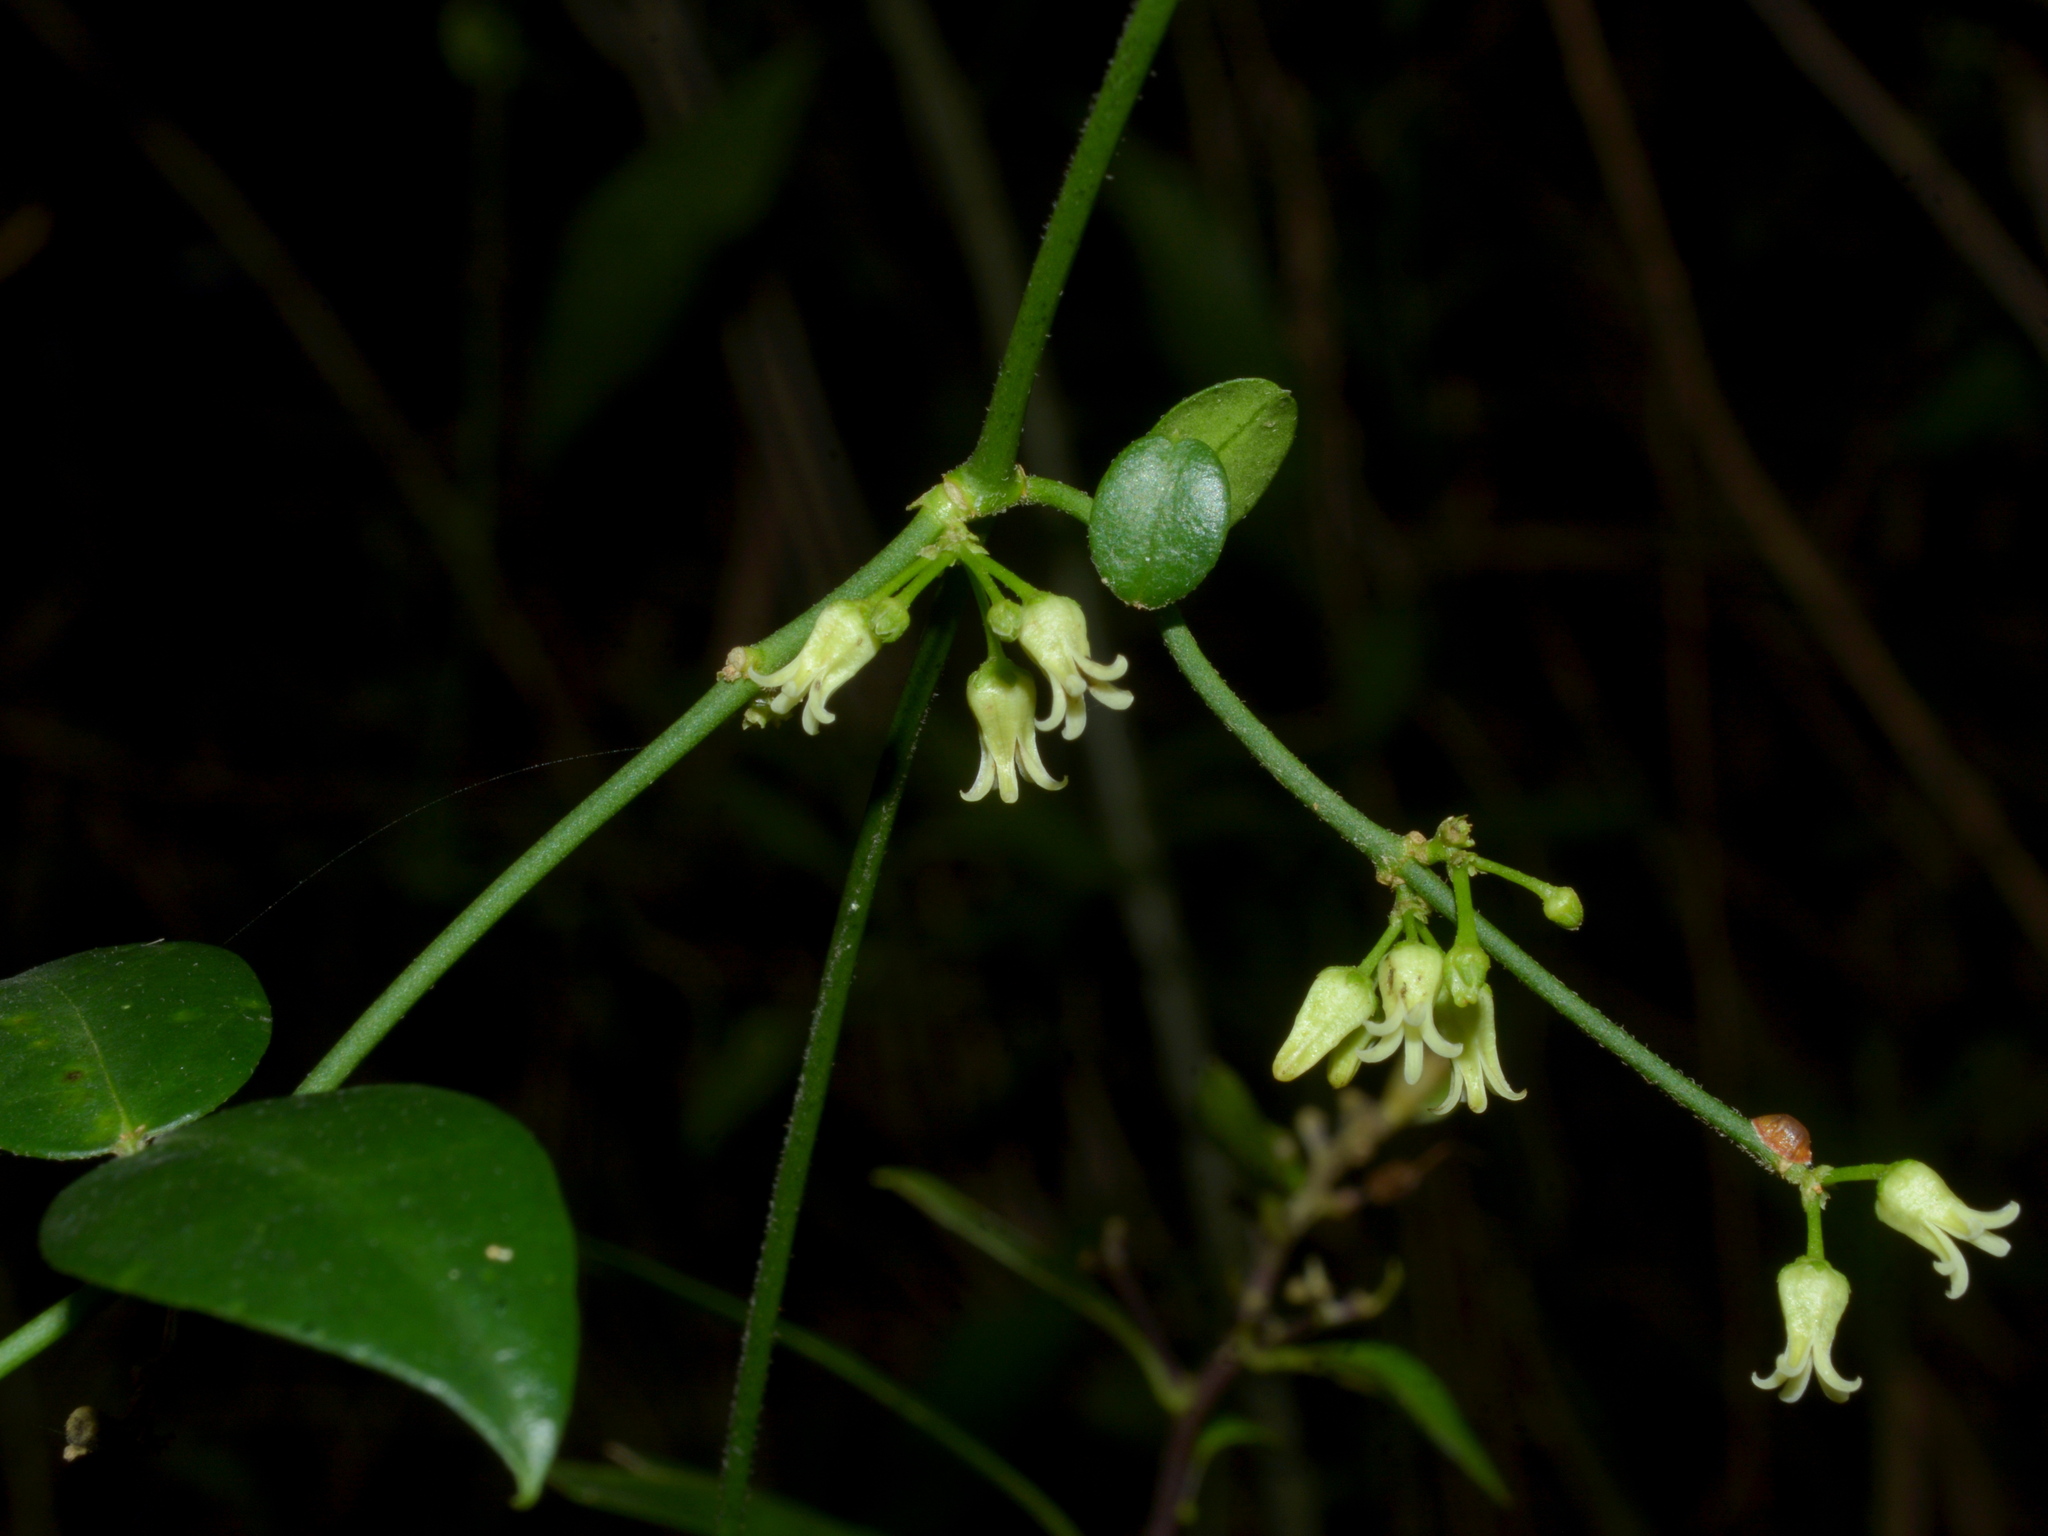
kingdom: Plantae
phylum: Tracheophyta
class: Magnoliopsida
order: Gentianales
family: Apocynaceae
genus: Orthosia
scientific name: Orthosia urceolata
